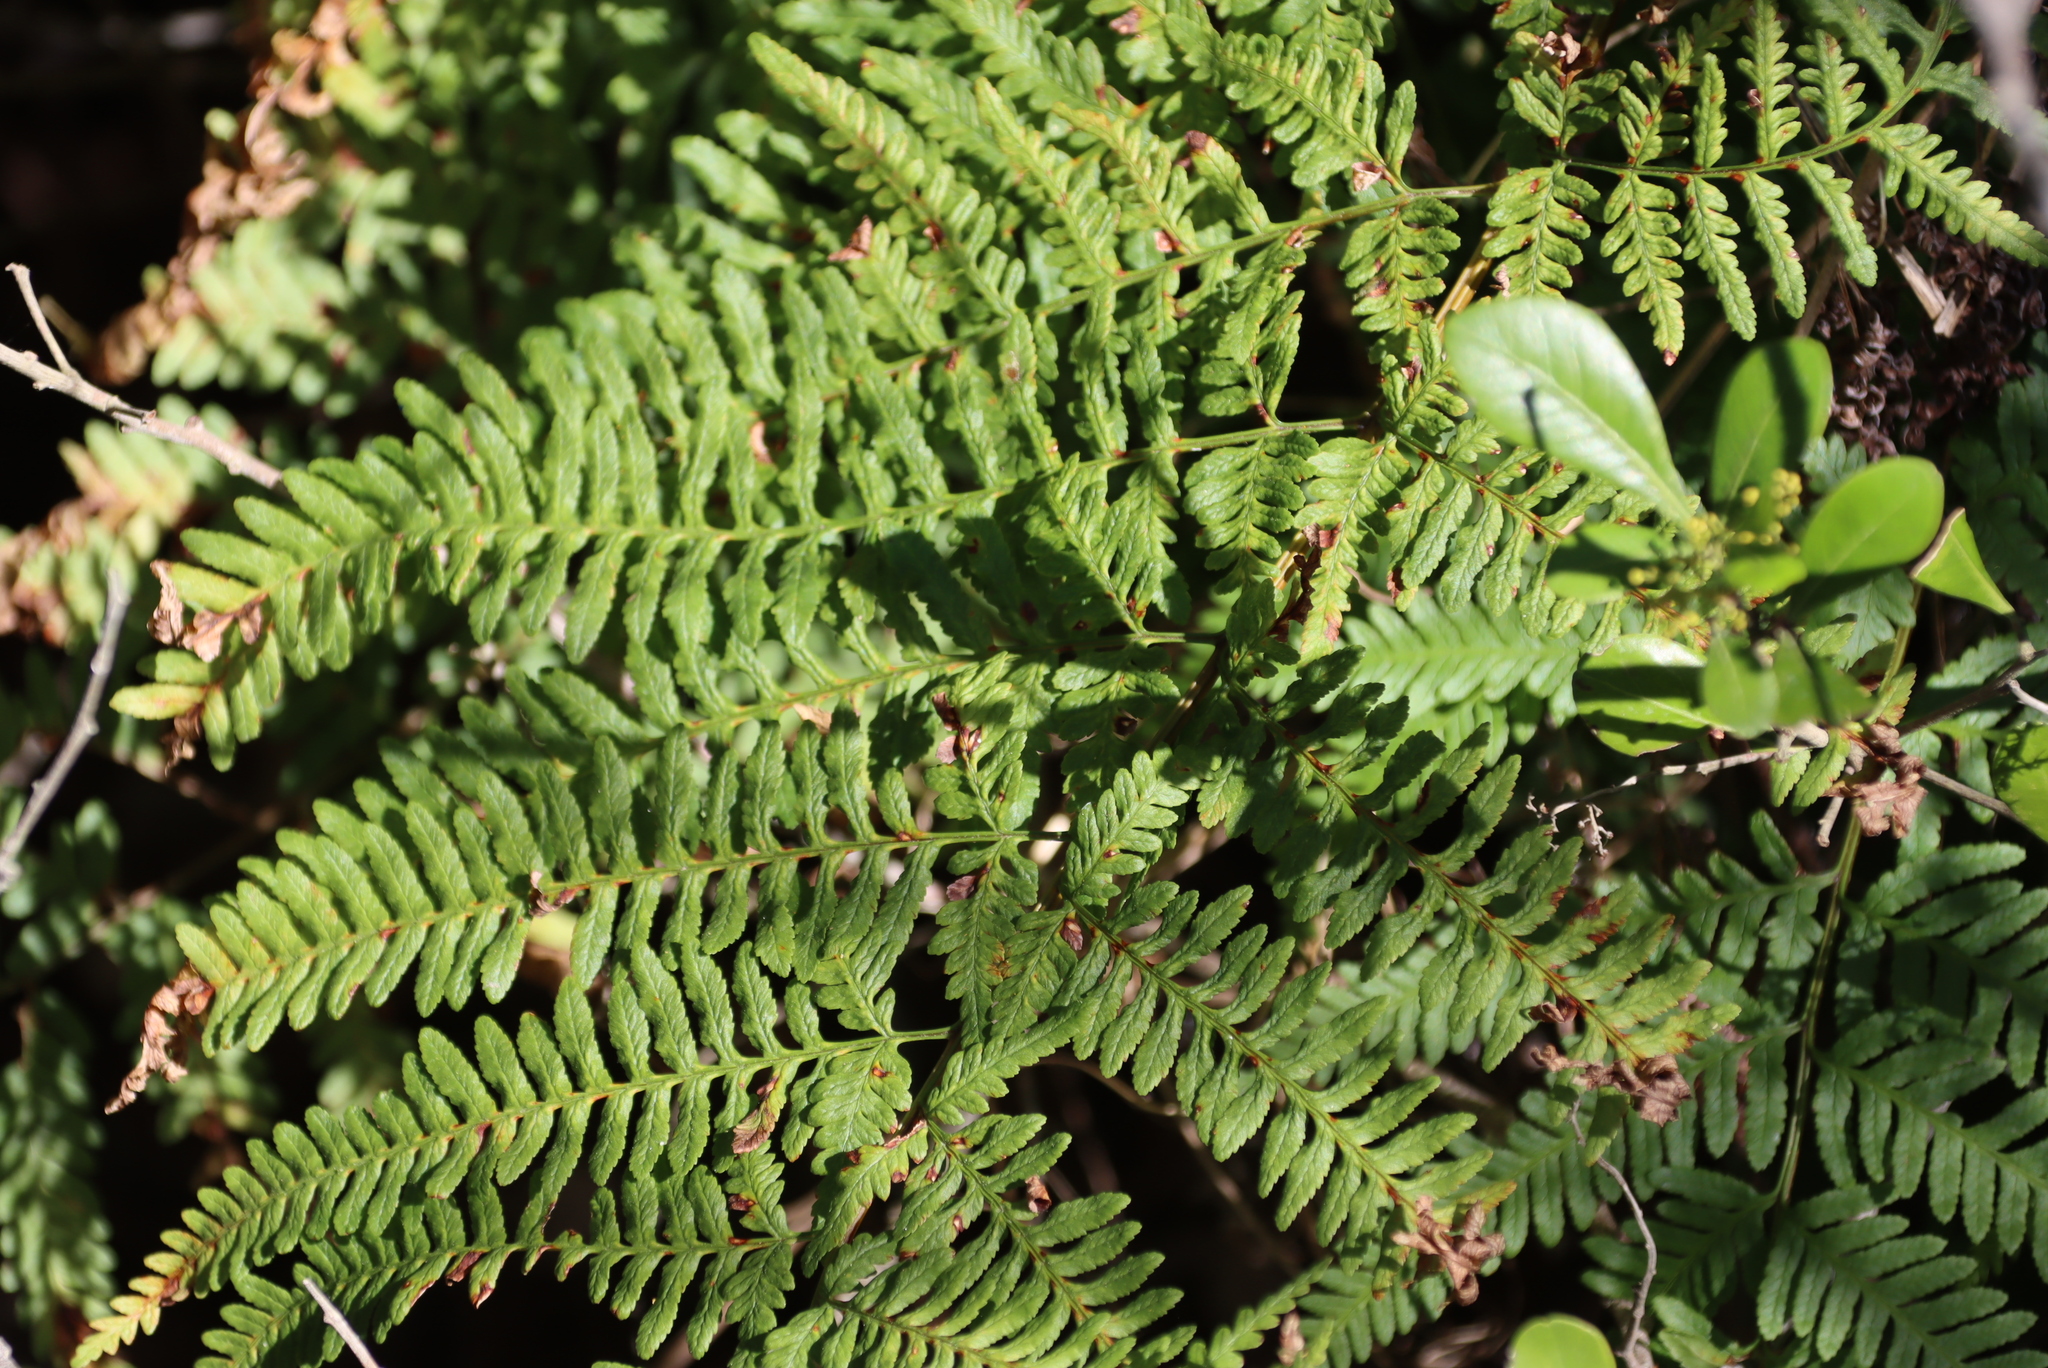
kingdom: Plantae
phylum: Tracheophyta
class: Polypodiopsida
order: Polypodiales
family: Dennstaedtiaceae
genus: Pteridium
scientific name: Pteridium aquilinum
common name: Bracken
